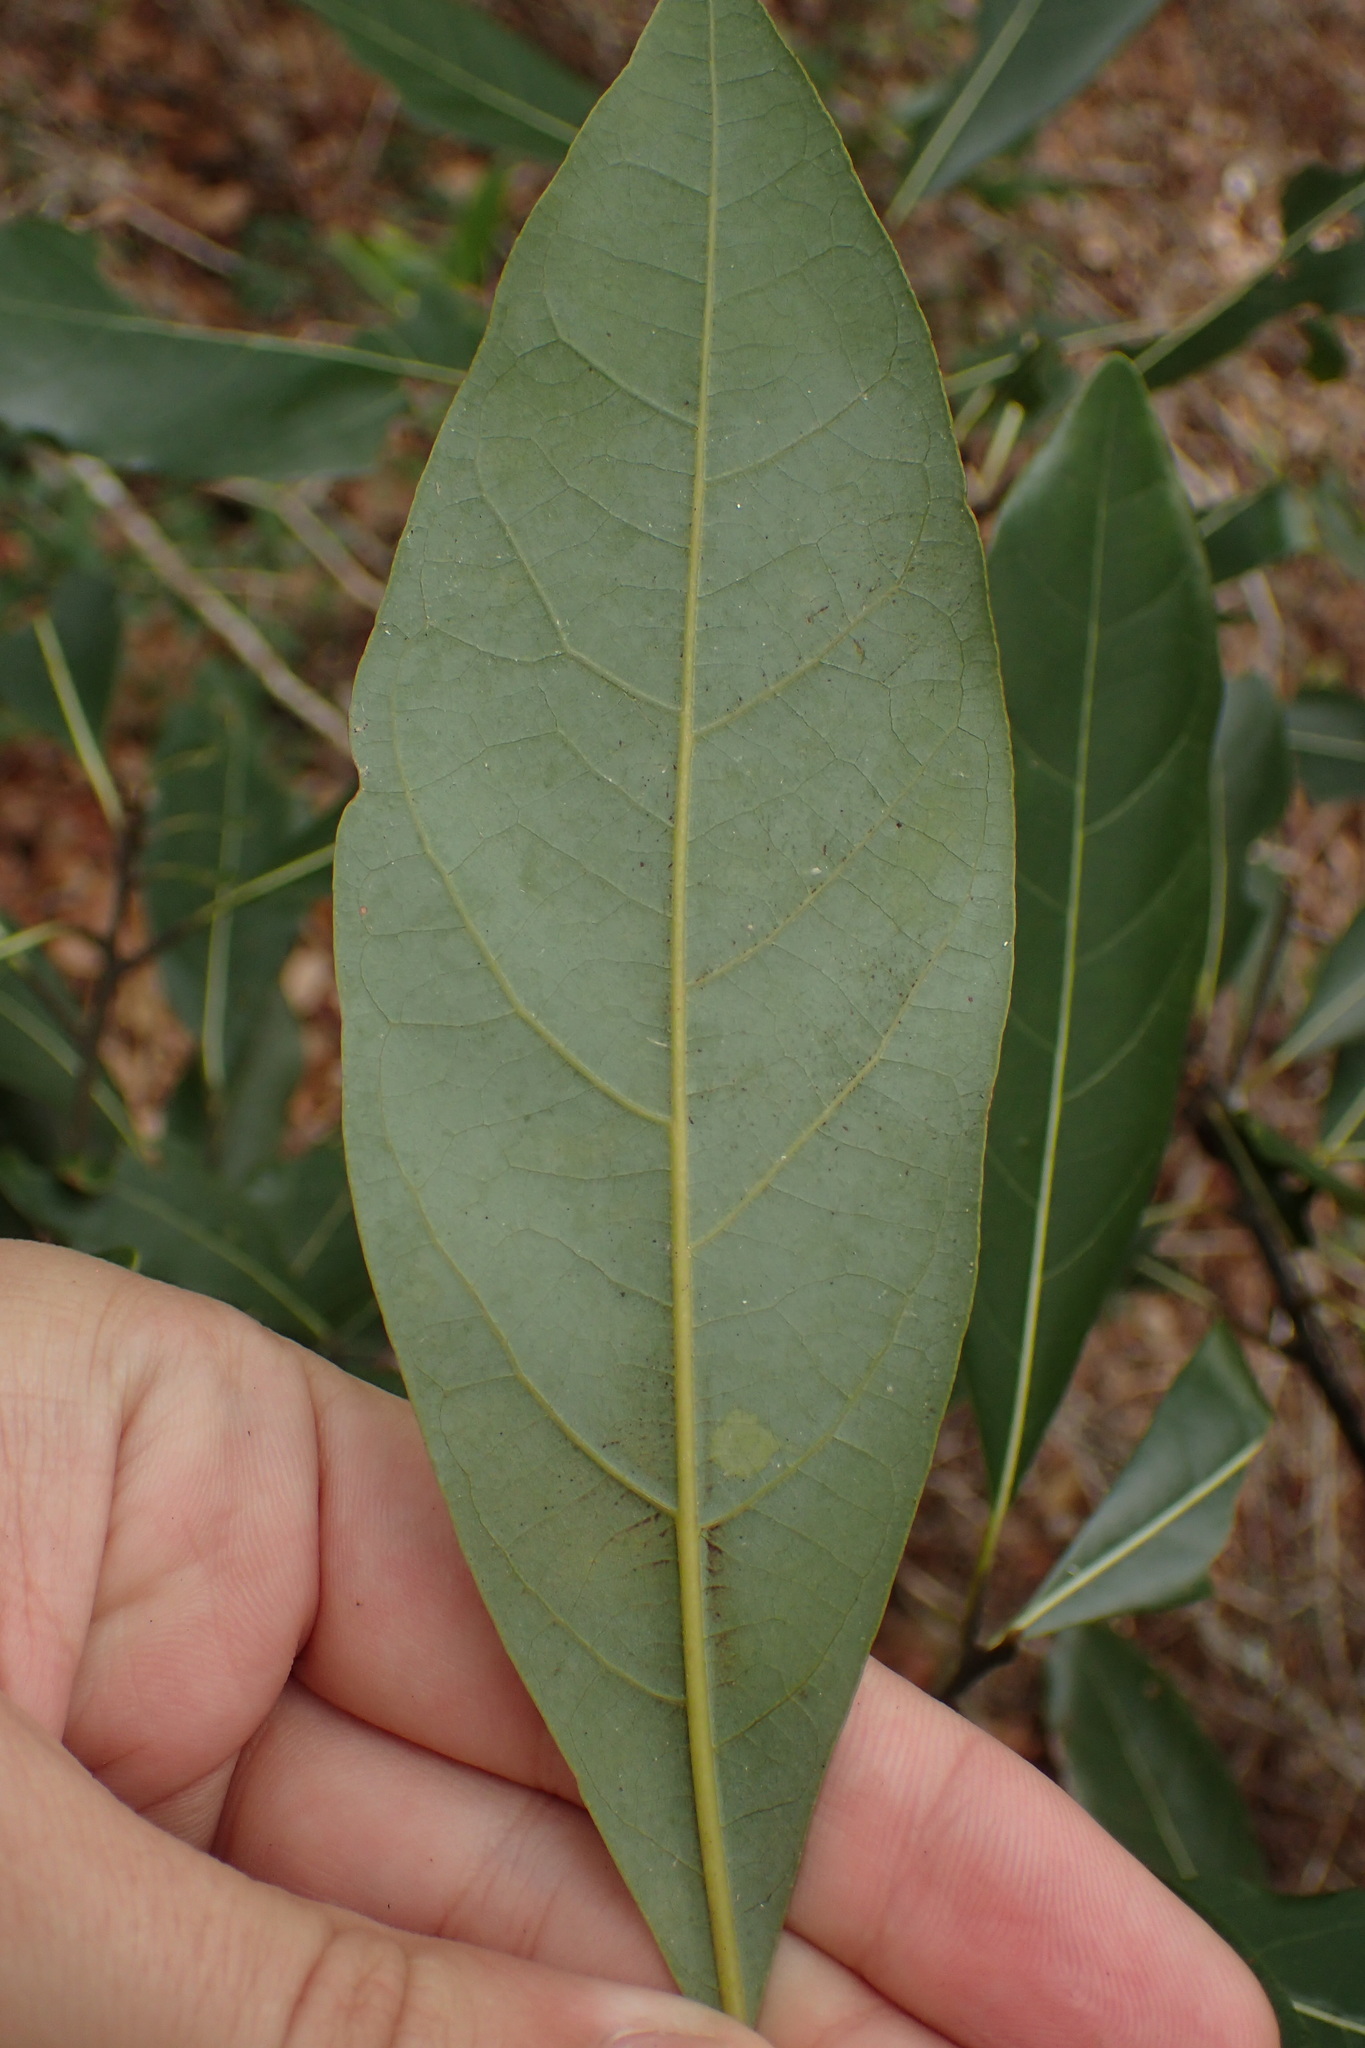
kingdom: Plantae
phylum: Tracheophyta
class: Magnoliopsida
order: Laurales
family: Lauraceae
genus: Persea
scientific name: Persea borbonia
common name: Redbay
